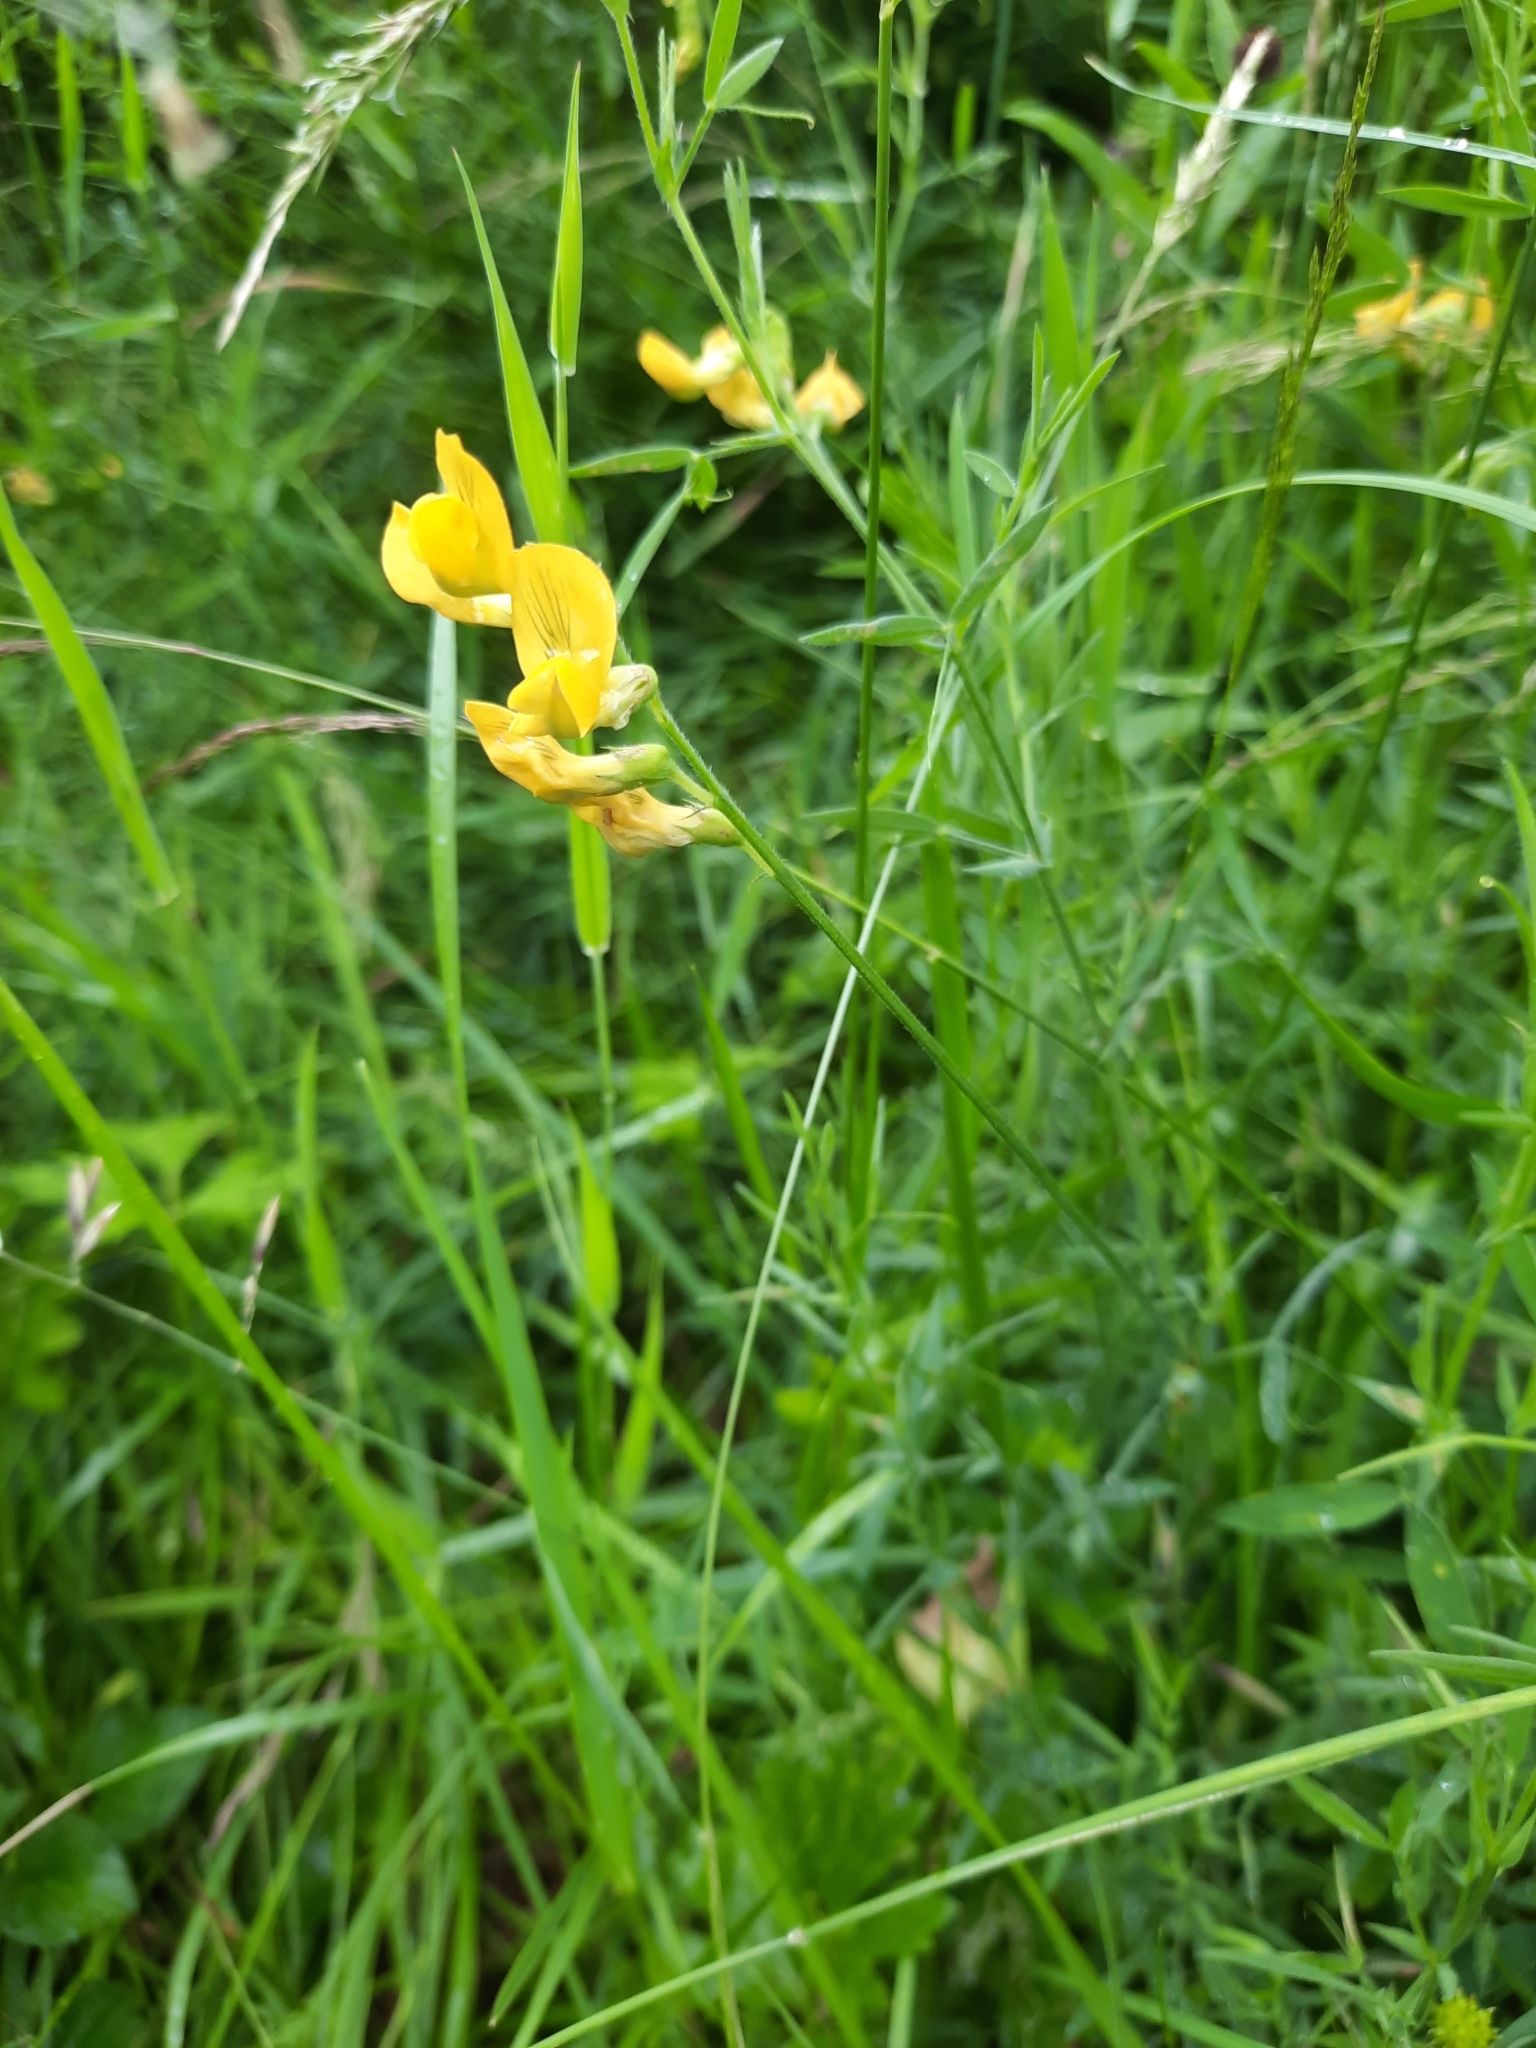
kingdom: Plantae
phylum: Tracheophyta
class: Magnoliopsida
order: Fabales
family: Fabaceae
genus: Lathyrus
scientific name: Lathyrus pratensis
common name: Meadow vetchling
